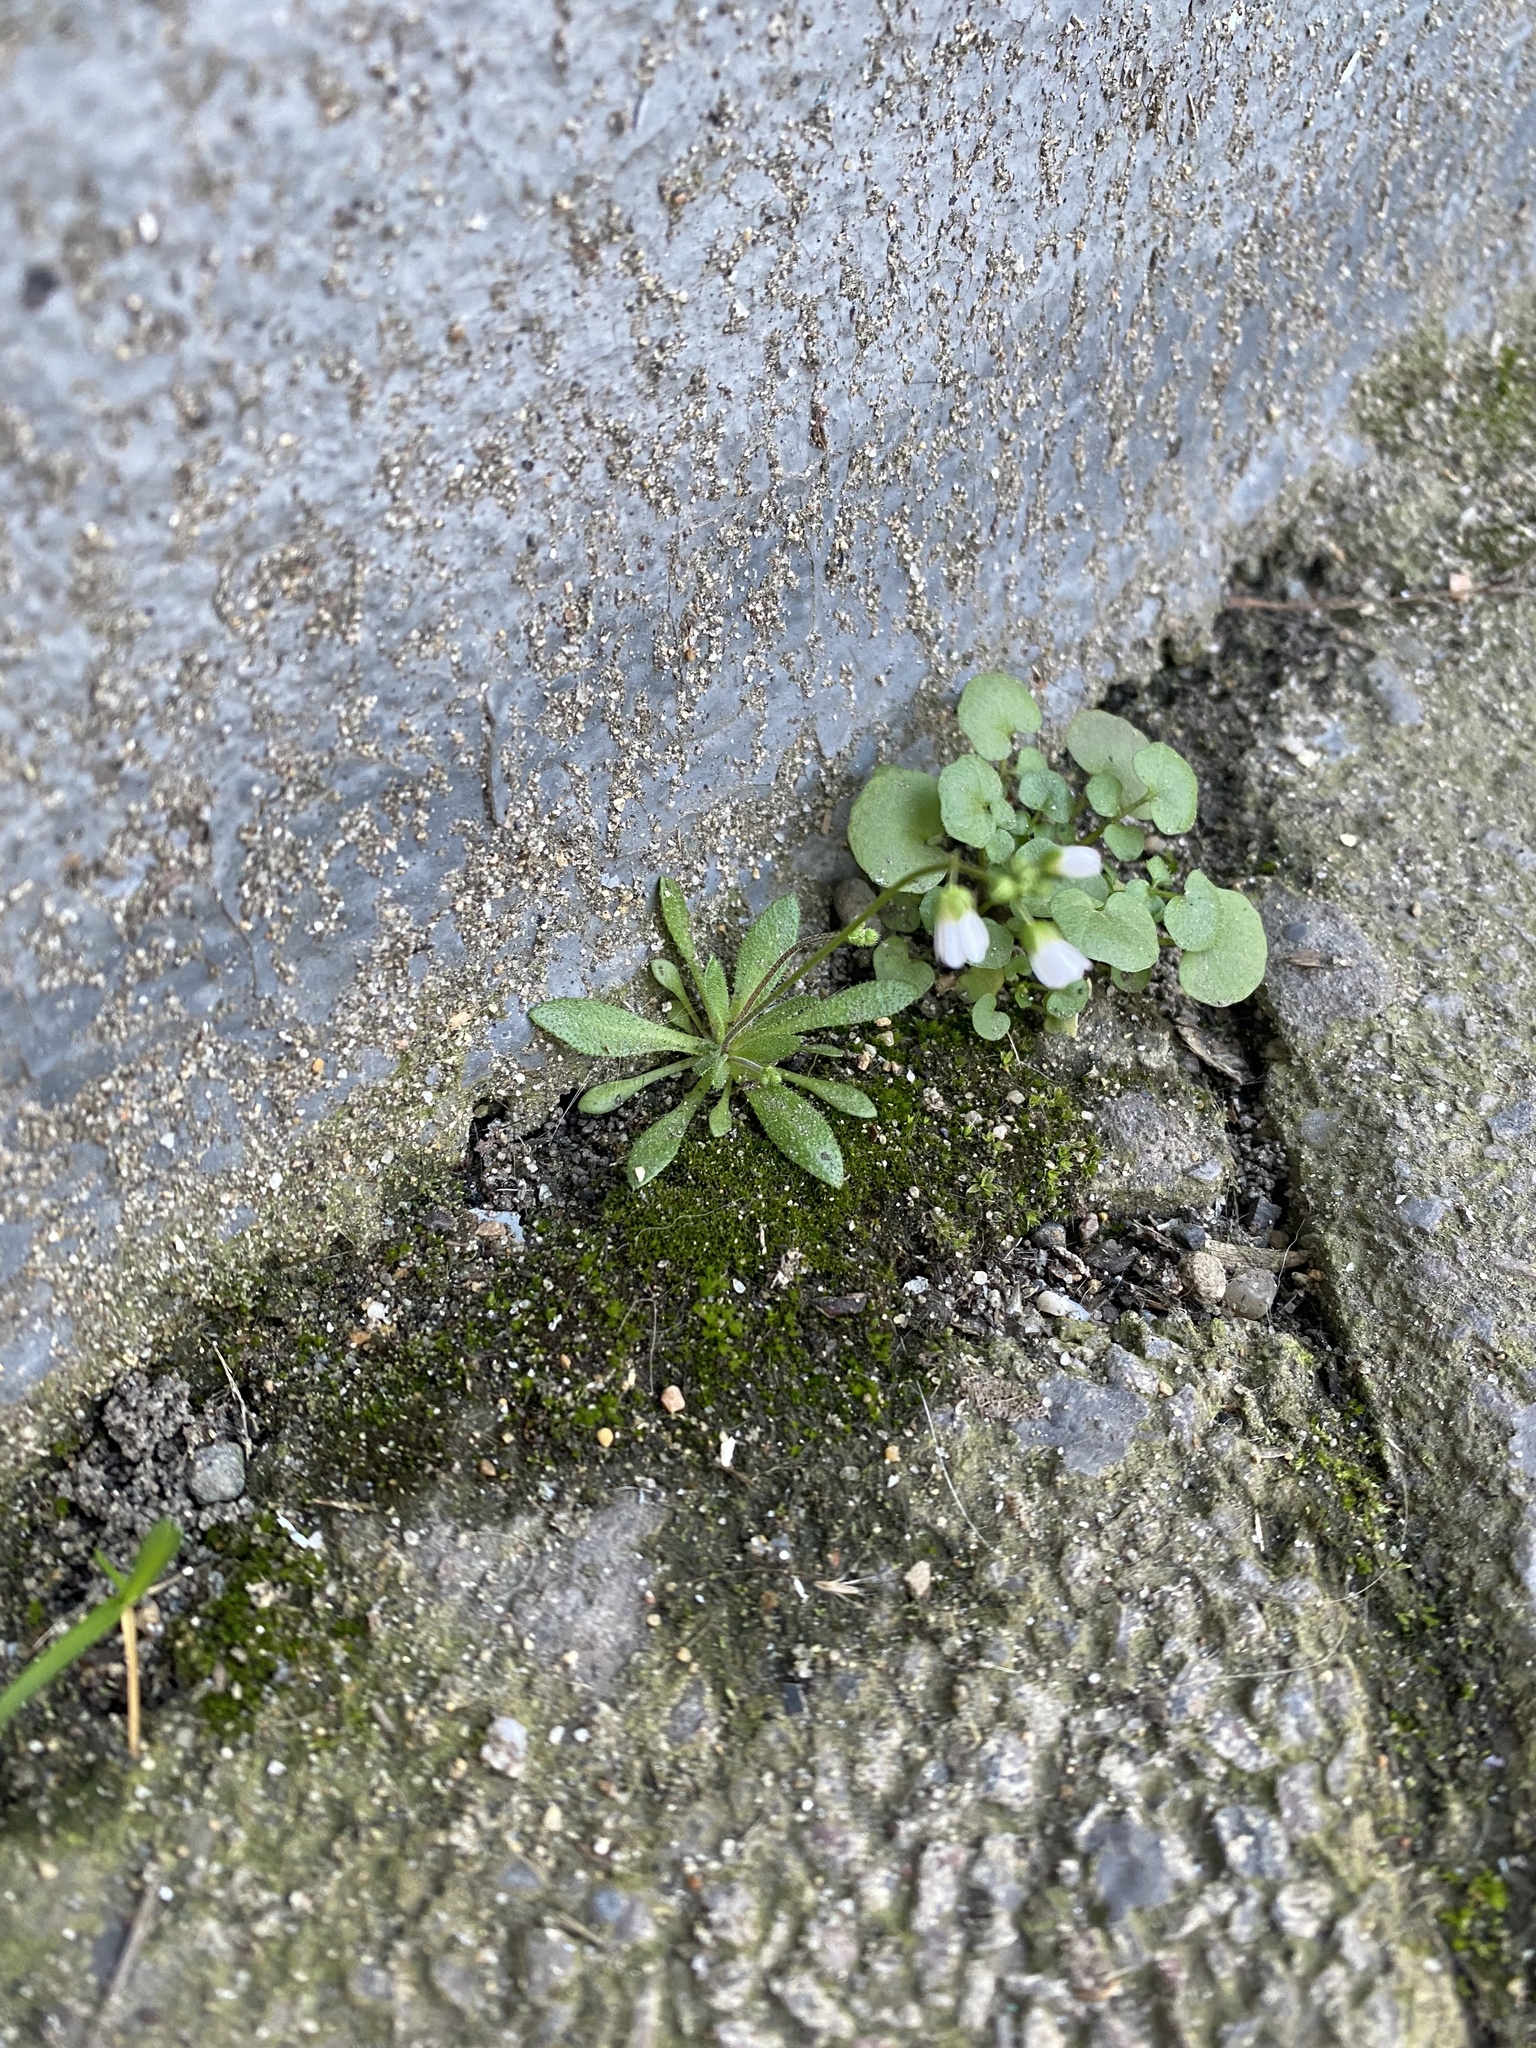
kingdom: Plantae
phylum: Tracheophyta
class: Magnoliopsida
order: Brassicales
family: Brassicaceae
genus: Draba
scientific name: Draba verna
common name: Spring draba
